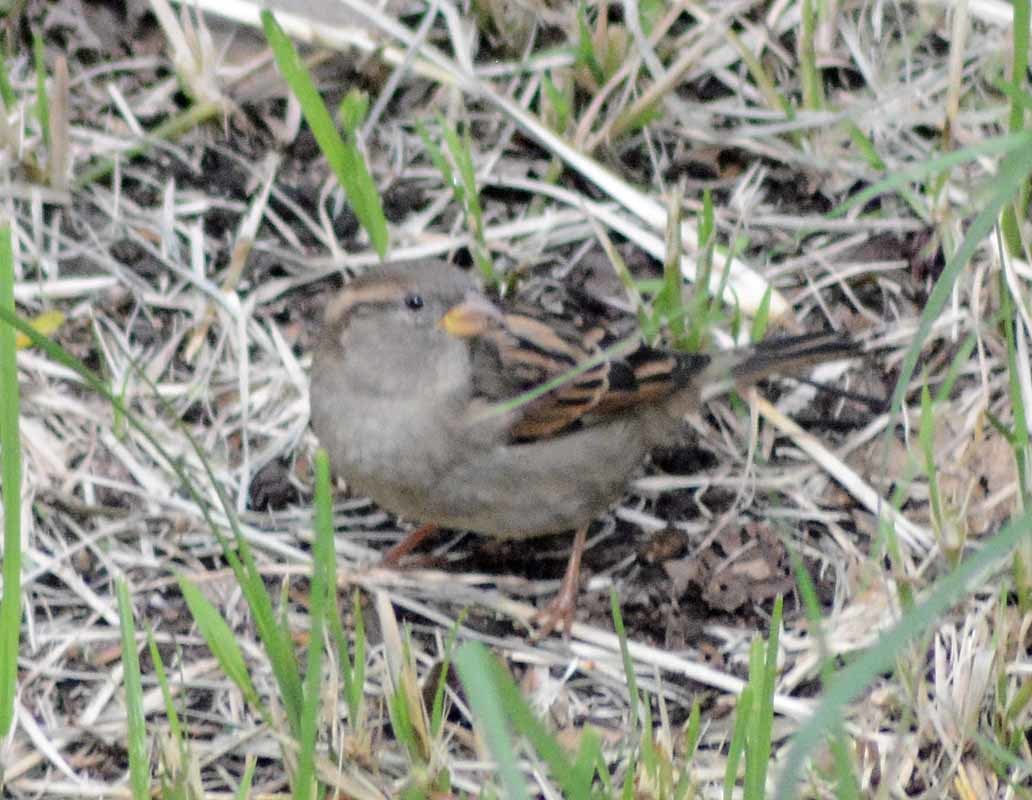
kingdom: Animalia
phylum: Chordata
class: Aves
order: Passeriformes
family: Passeridae
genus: Passer
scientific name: Passer domesticus
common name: House sparrow
